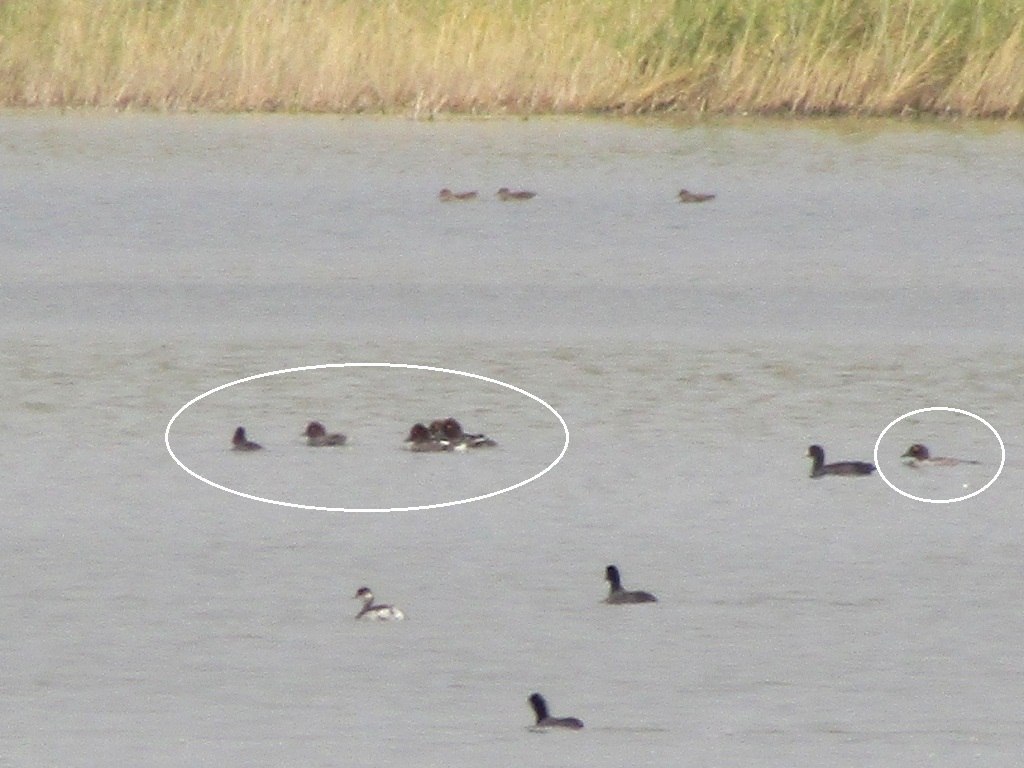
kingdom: Animalia
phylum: Chordata
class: Aves
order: Anseriformes
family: Anatidae
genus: Bucephala
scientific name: Bucephala clangula
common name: Common goldeneye
